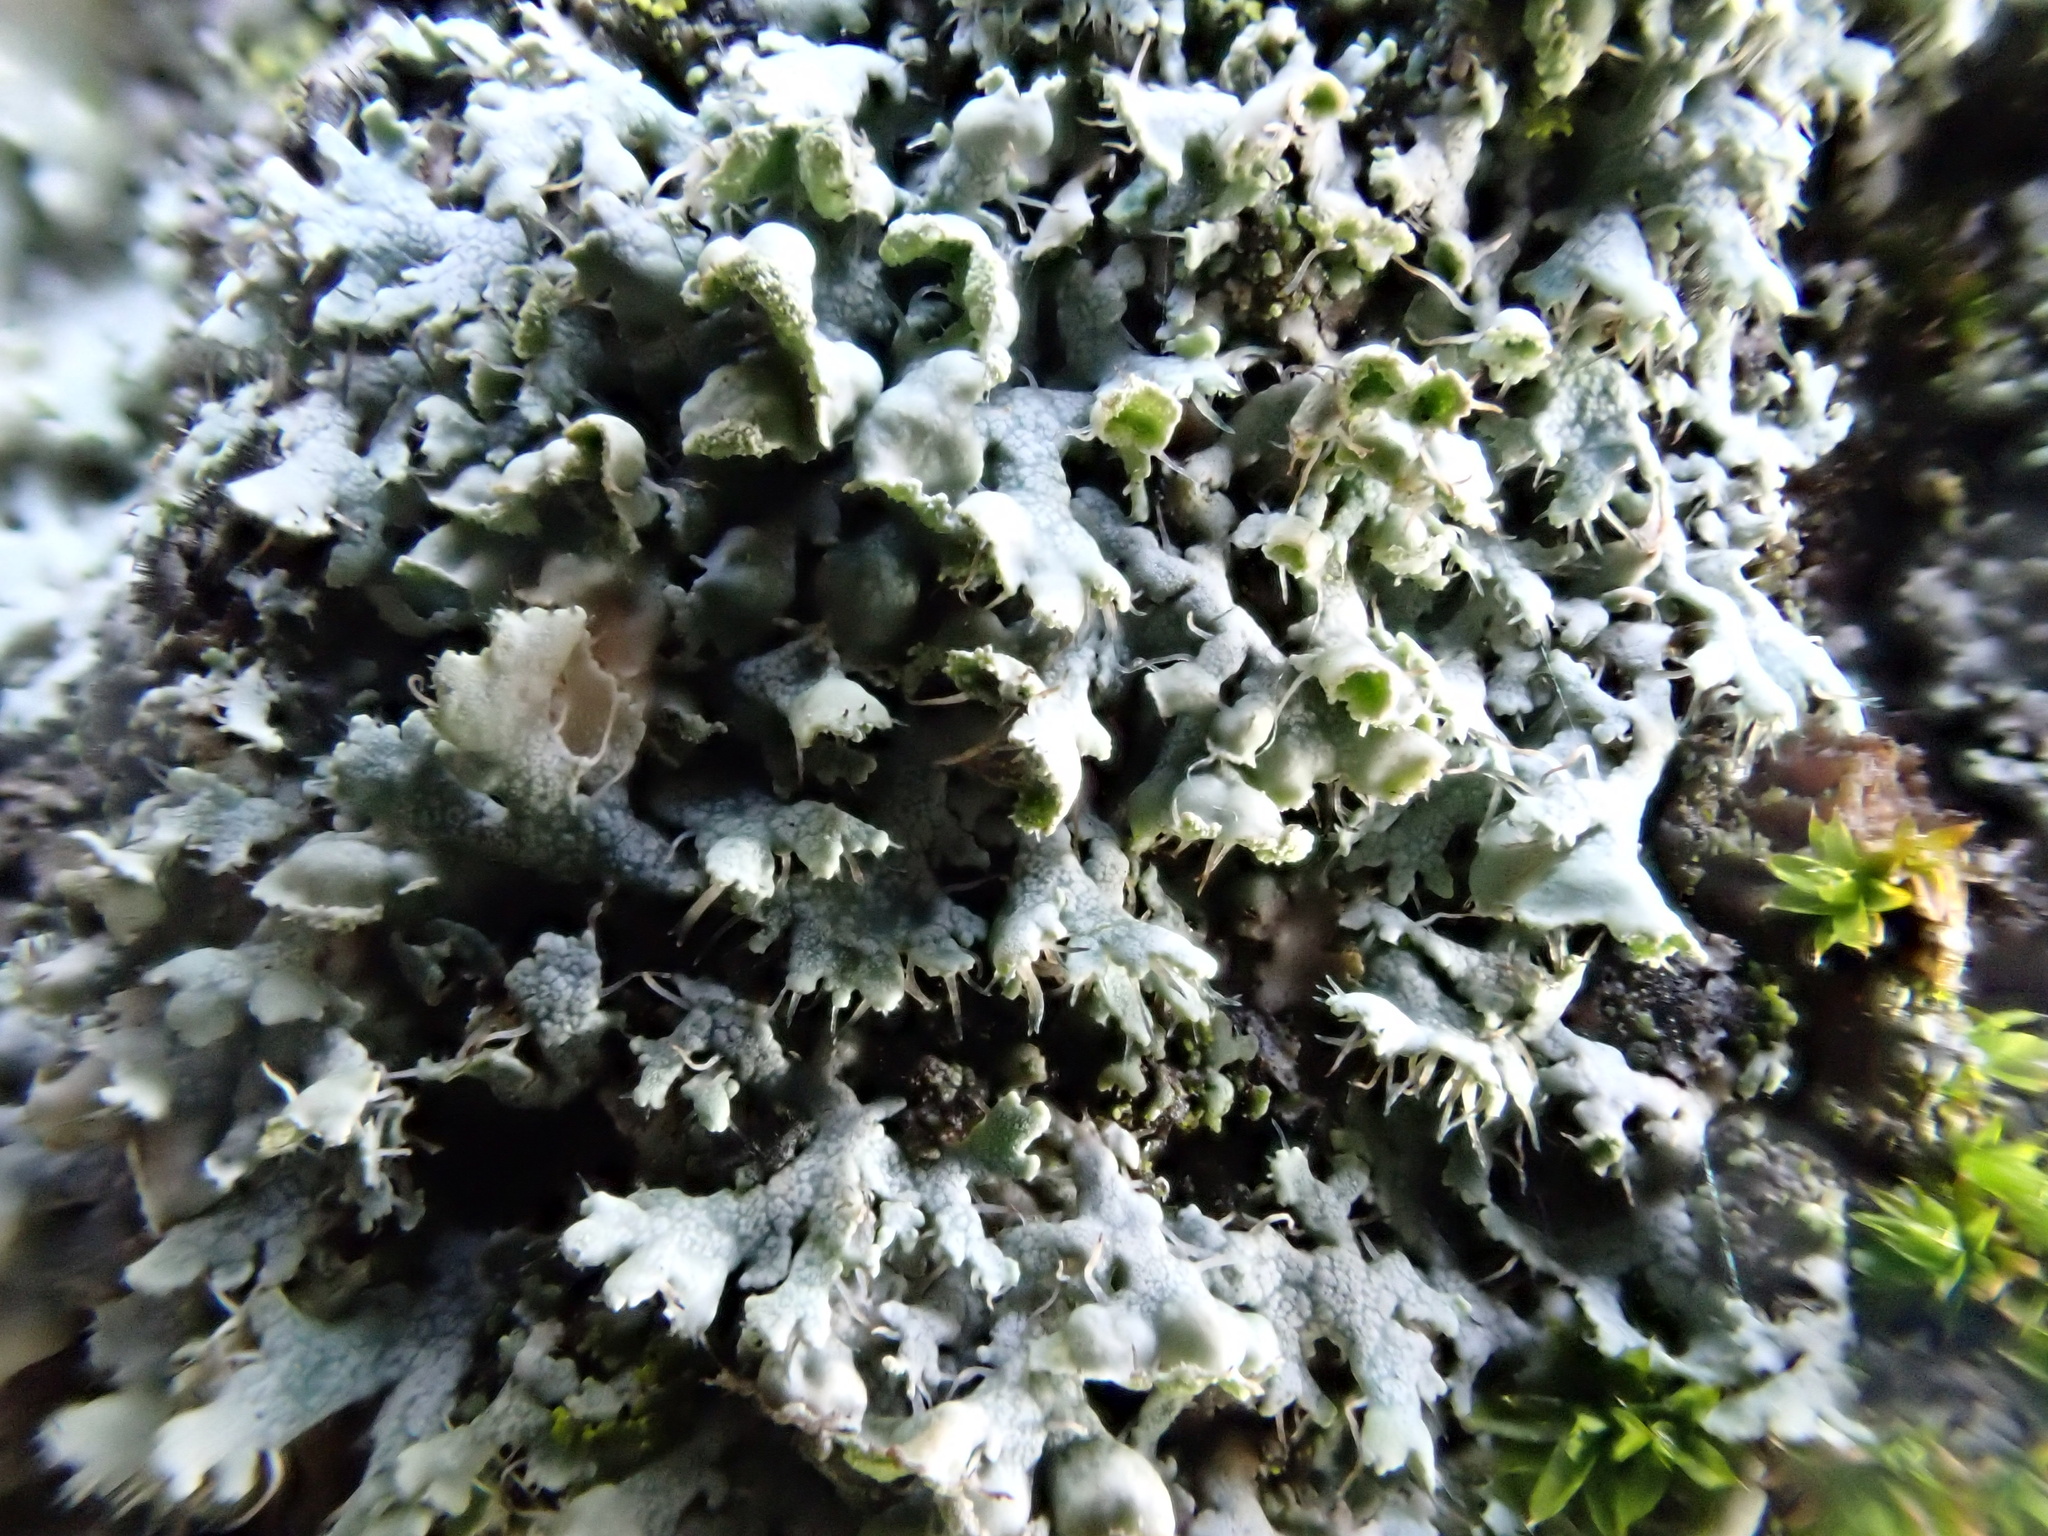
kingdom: Fungi
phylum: Ascomycota
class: Lecanoromycetes
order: Caliciales
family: Physciaceae
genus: Physcia
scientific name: Physcia adscendens
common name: Hooded rosette lichen
